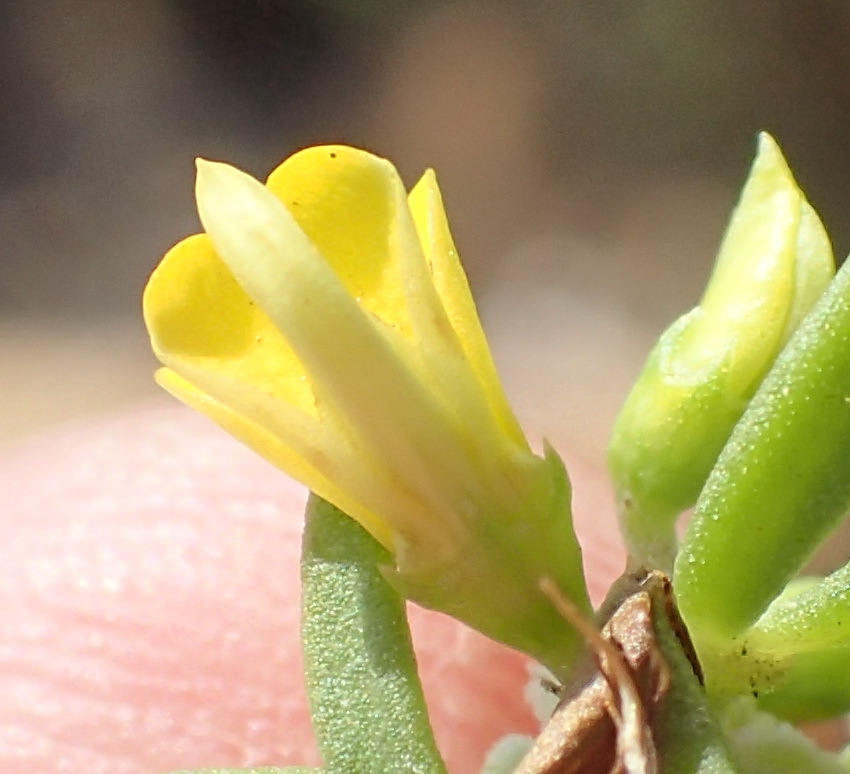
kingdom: Plantae
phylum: Tracheophyta
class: Magnoliopsida
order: Fabales
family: Fabaceae
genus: Aspalathus
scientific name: Aspalathus mundiana
